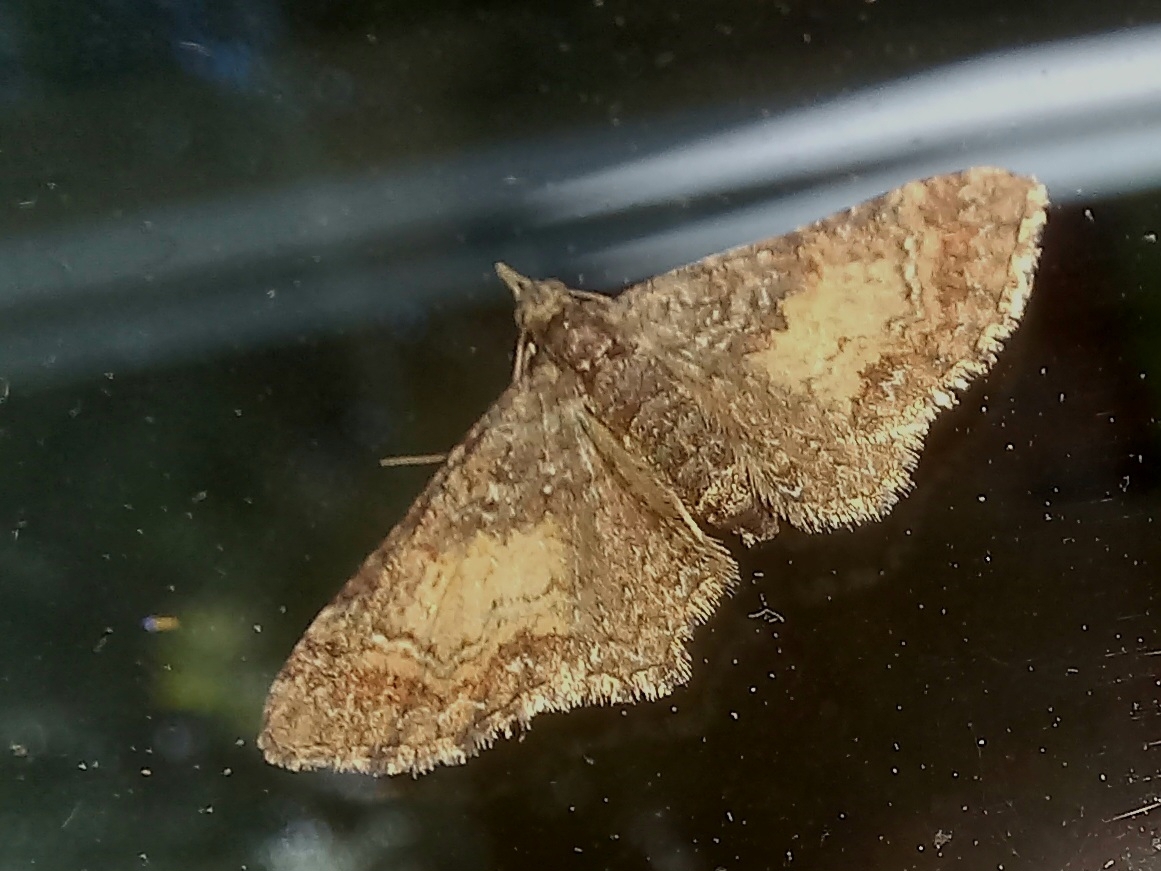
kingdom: Animalia
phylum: Arthropoda
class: Insecta
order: Lepidoptera
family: Geometridae
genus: Pasiphila
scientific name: Pasiphila lunata
